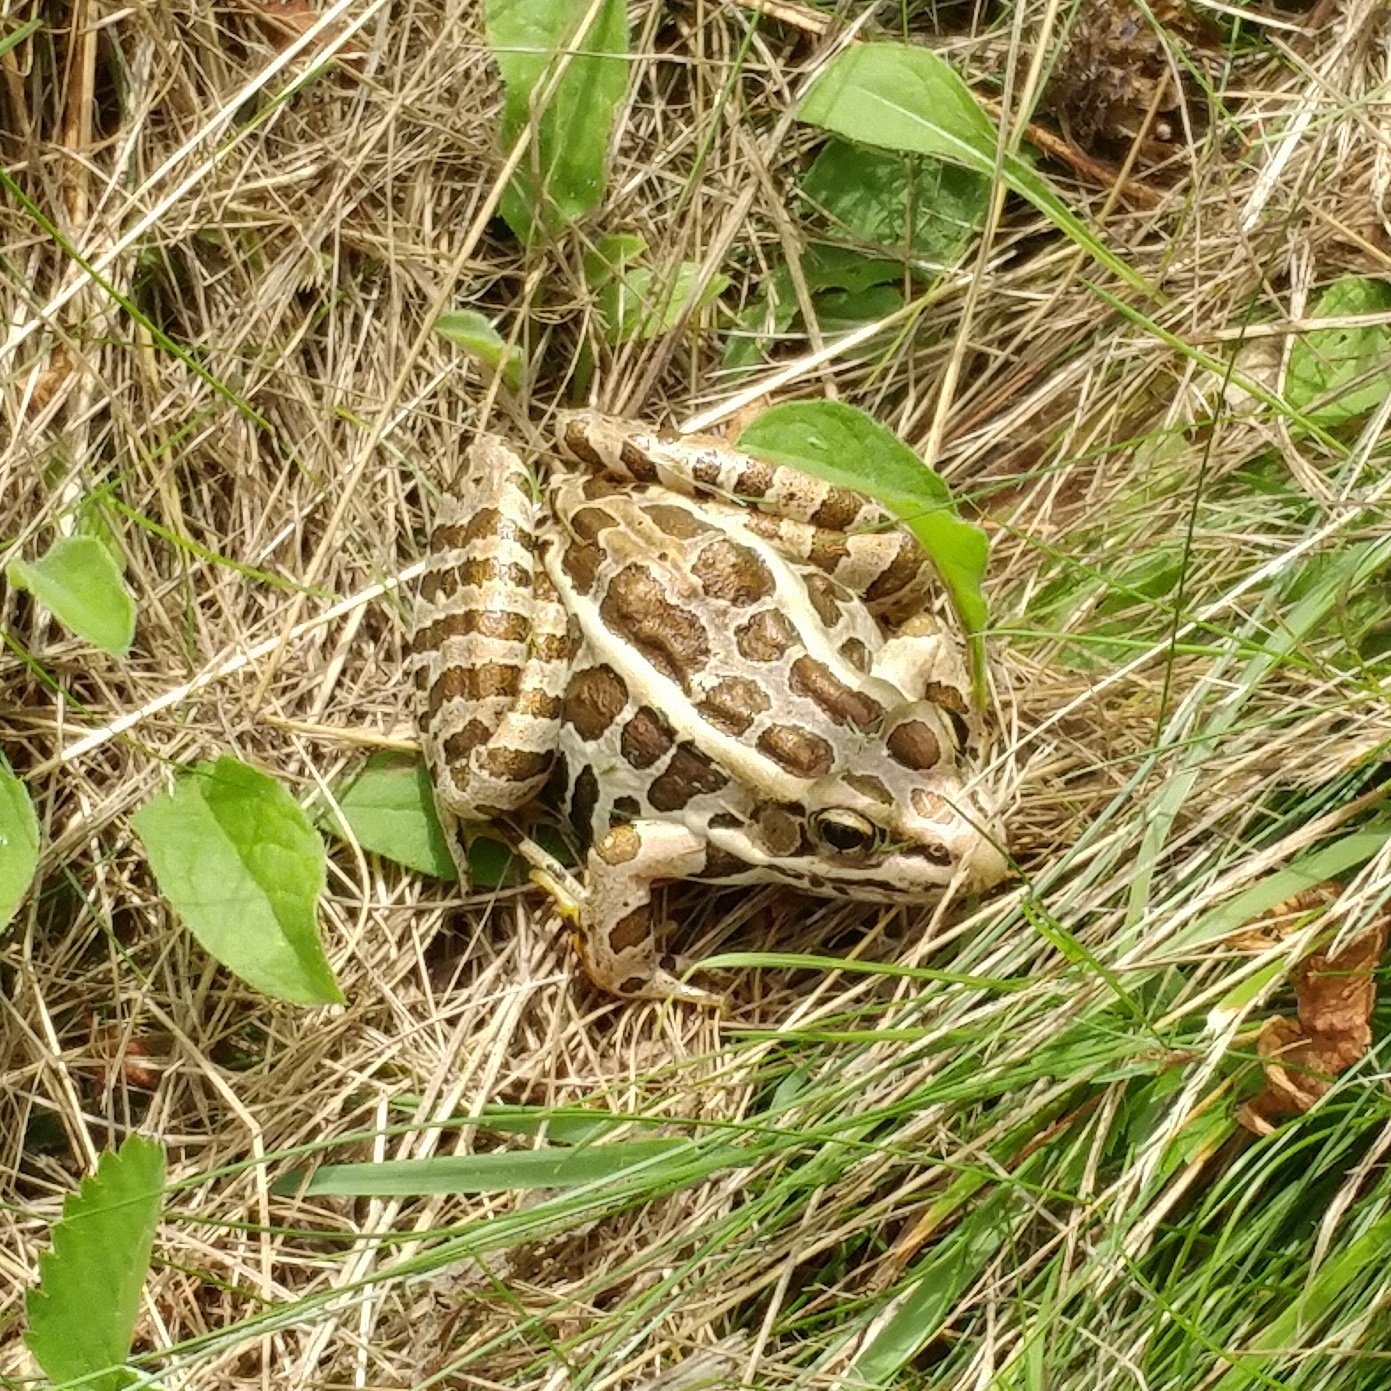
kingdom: Animalia
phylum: Chordata
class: Amphibia
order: Anura
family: Ranidae
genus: Lithobates
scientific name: Lithobates palustris
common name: Pickerel frog
